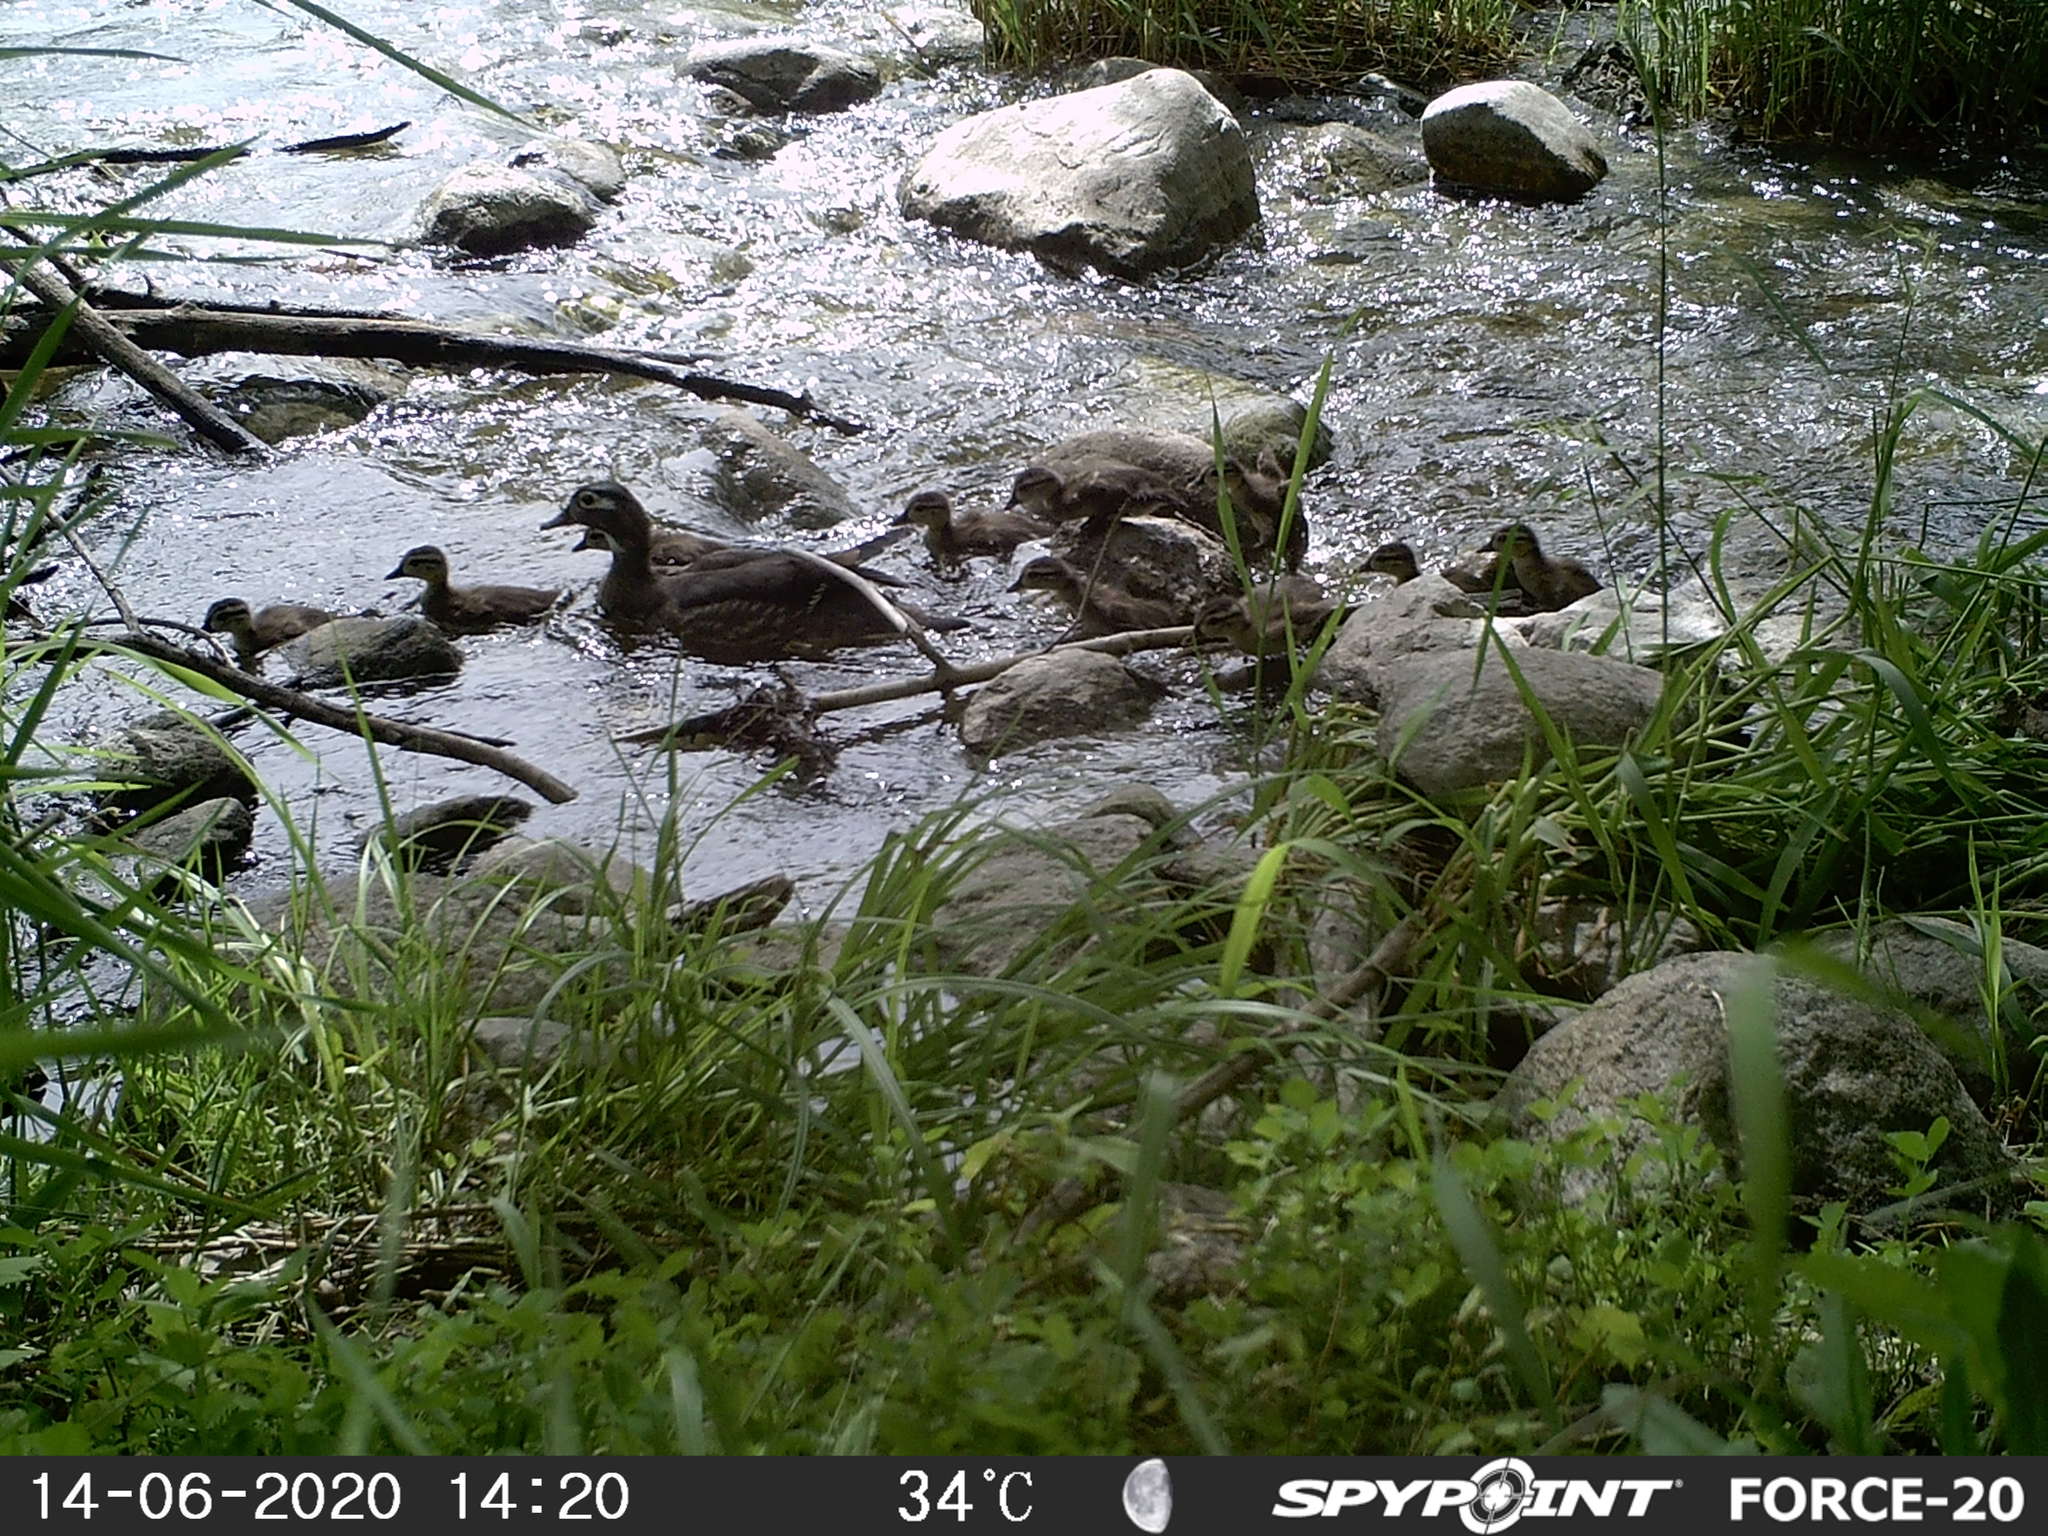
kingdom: Animalia
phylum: Chordata
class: Aves
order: Anseriformes
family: Anatidae
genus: Aix
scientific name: Aix sponsa
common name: Wood duck
